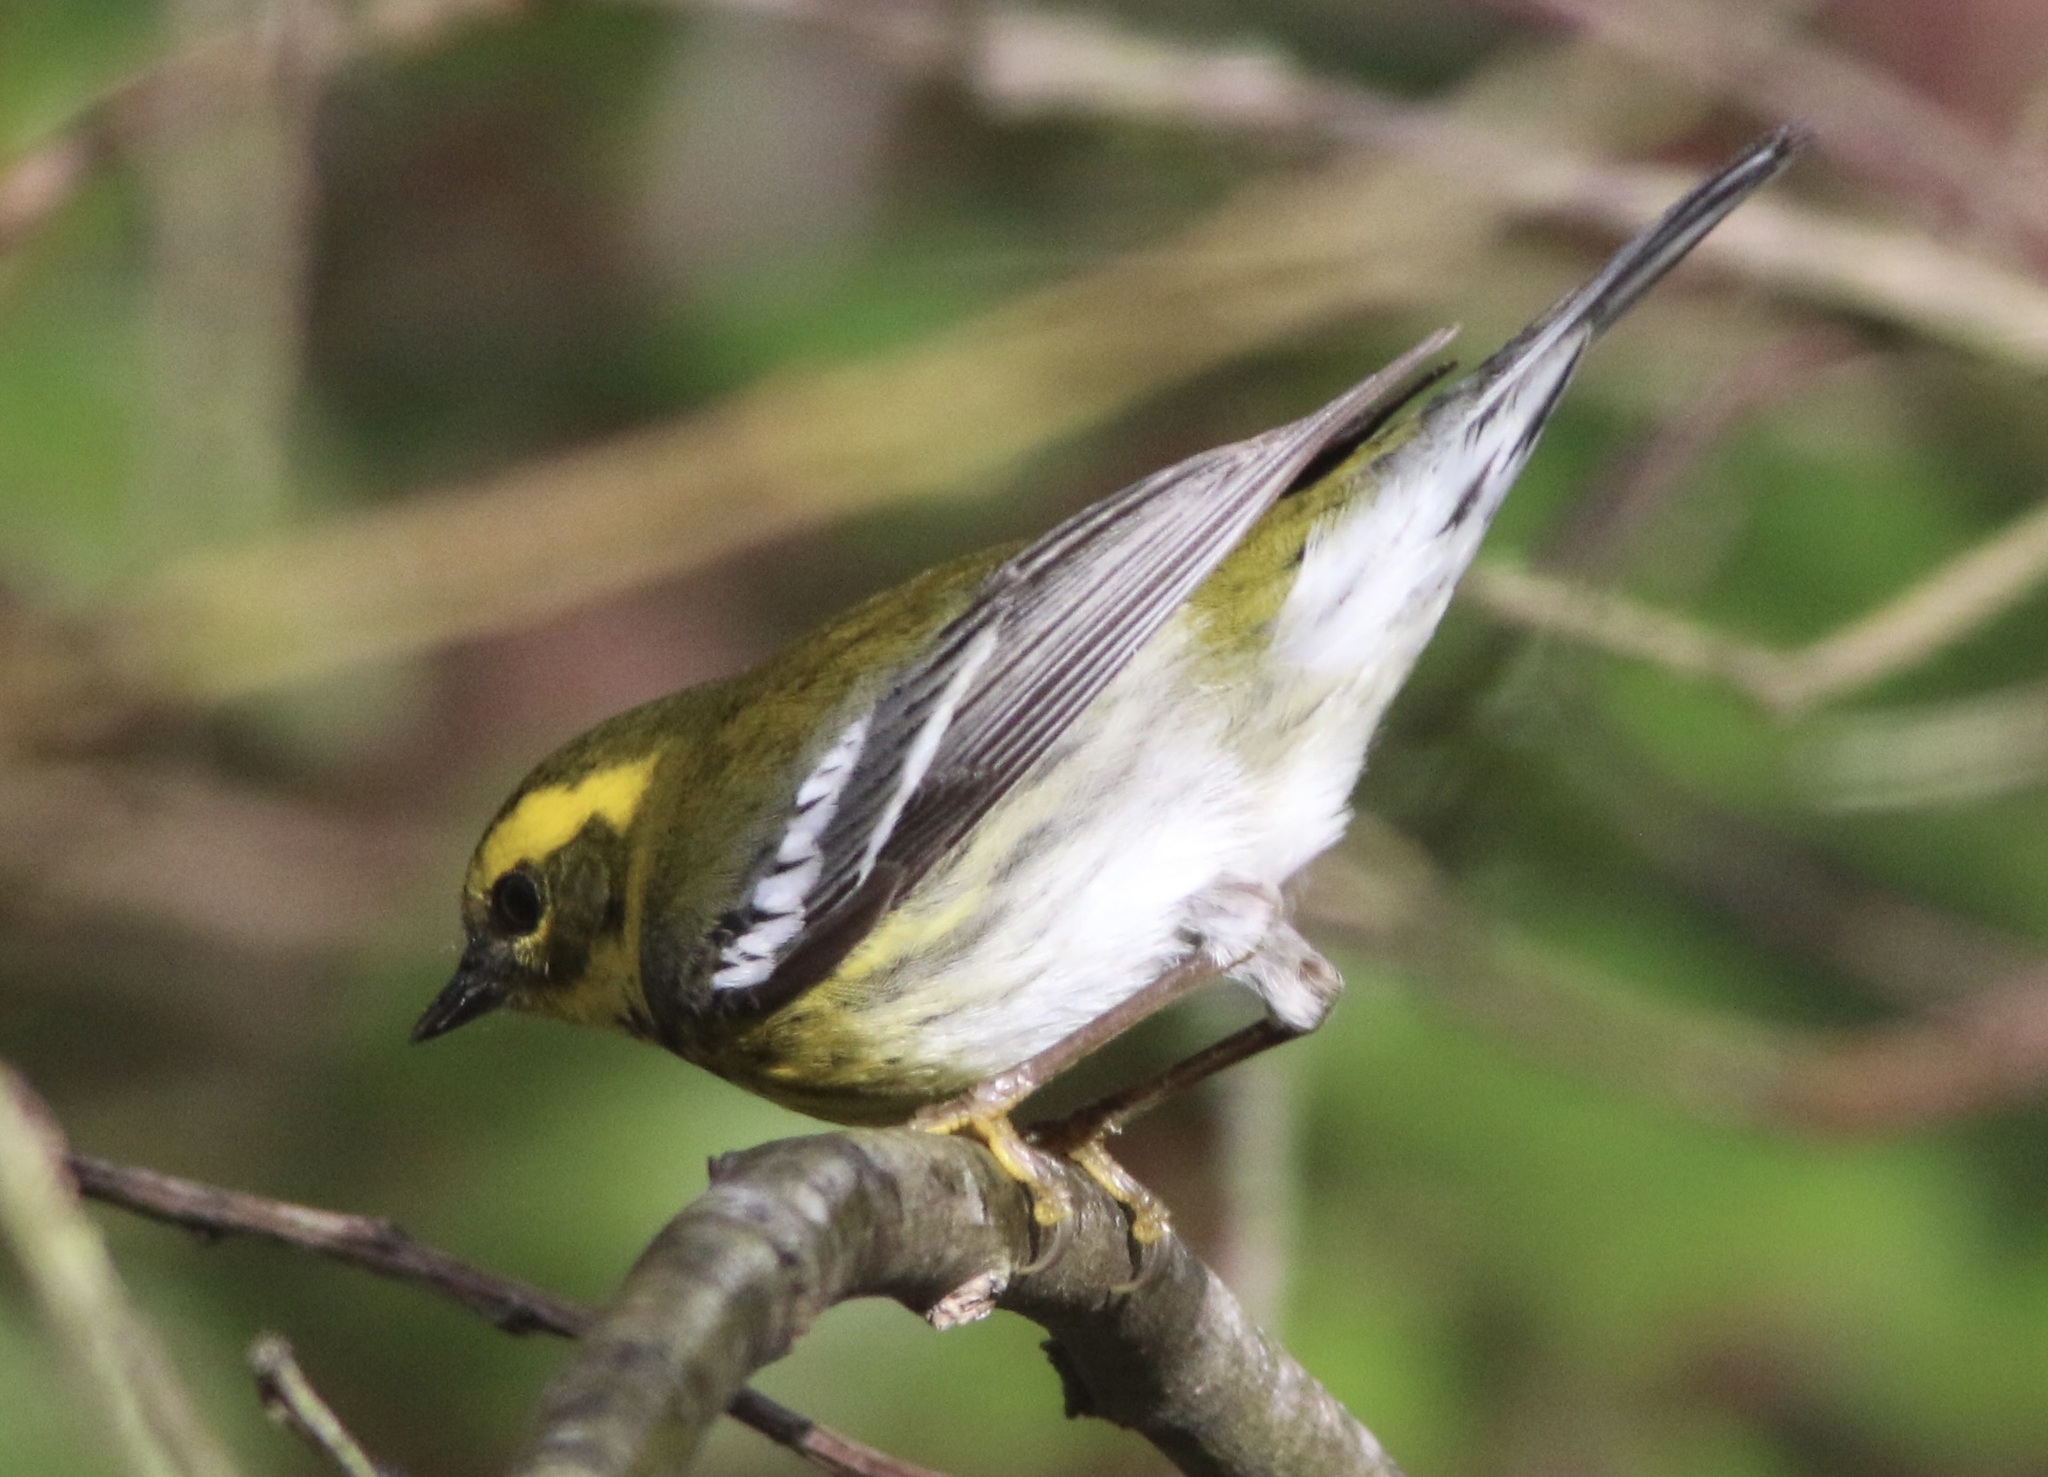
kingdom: Animalia
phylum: Chordata
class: Aves
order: Passeriformes
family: Parulidae
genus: Setophaga
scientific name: Setophaga townsendi
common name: Townsend's warbler
